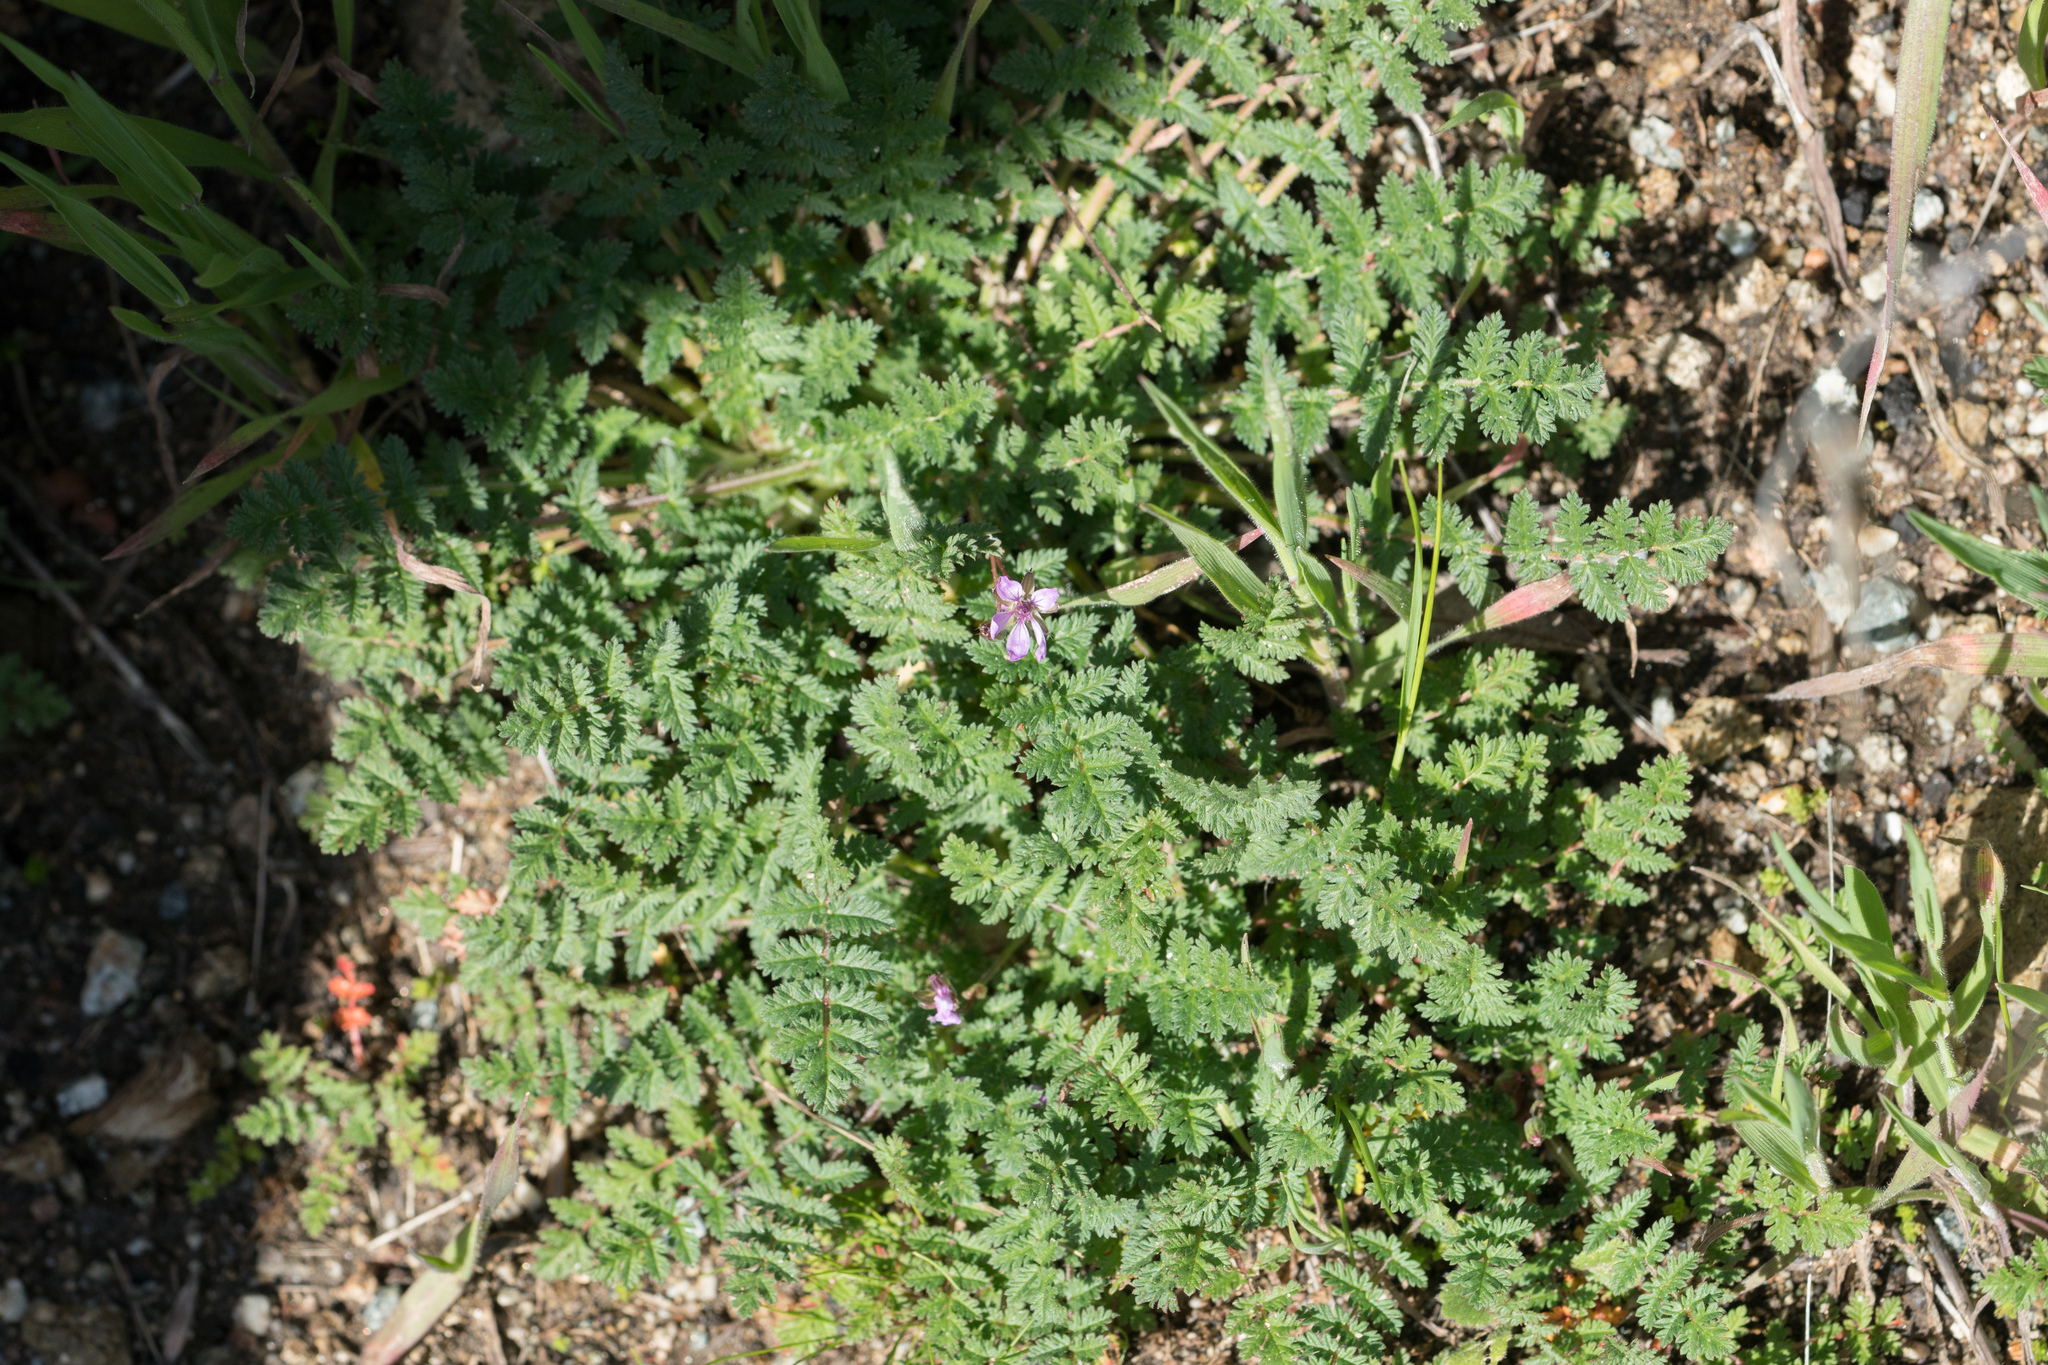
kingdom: Plantae
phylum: Tracheophyta
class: Magnoliopsida
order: Geraniales
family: Geraniaceae
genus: Erodium
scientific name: Erodium cicutarium
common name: Common stork's-bill
